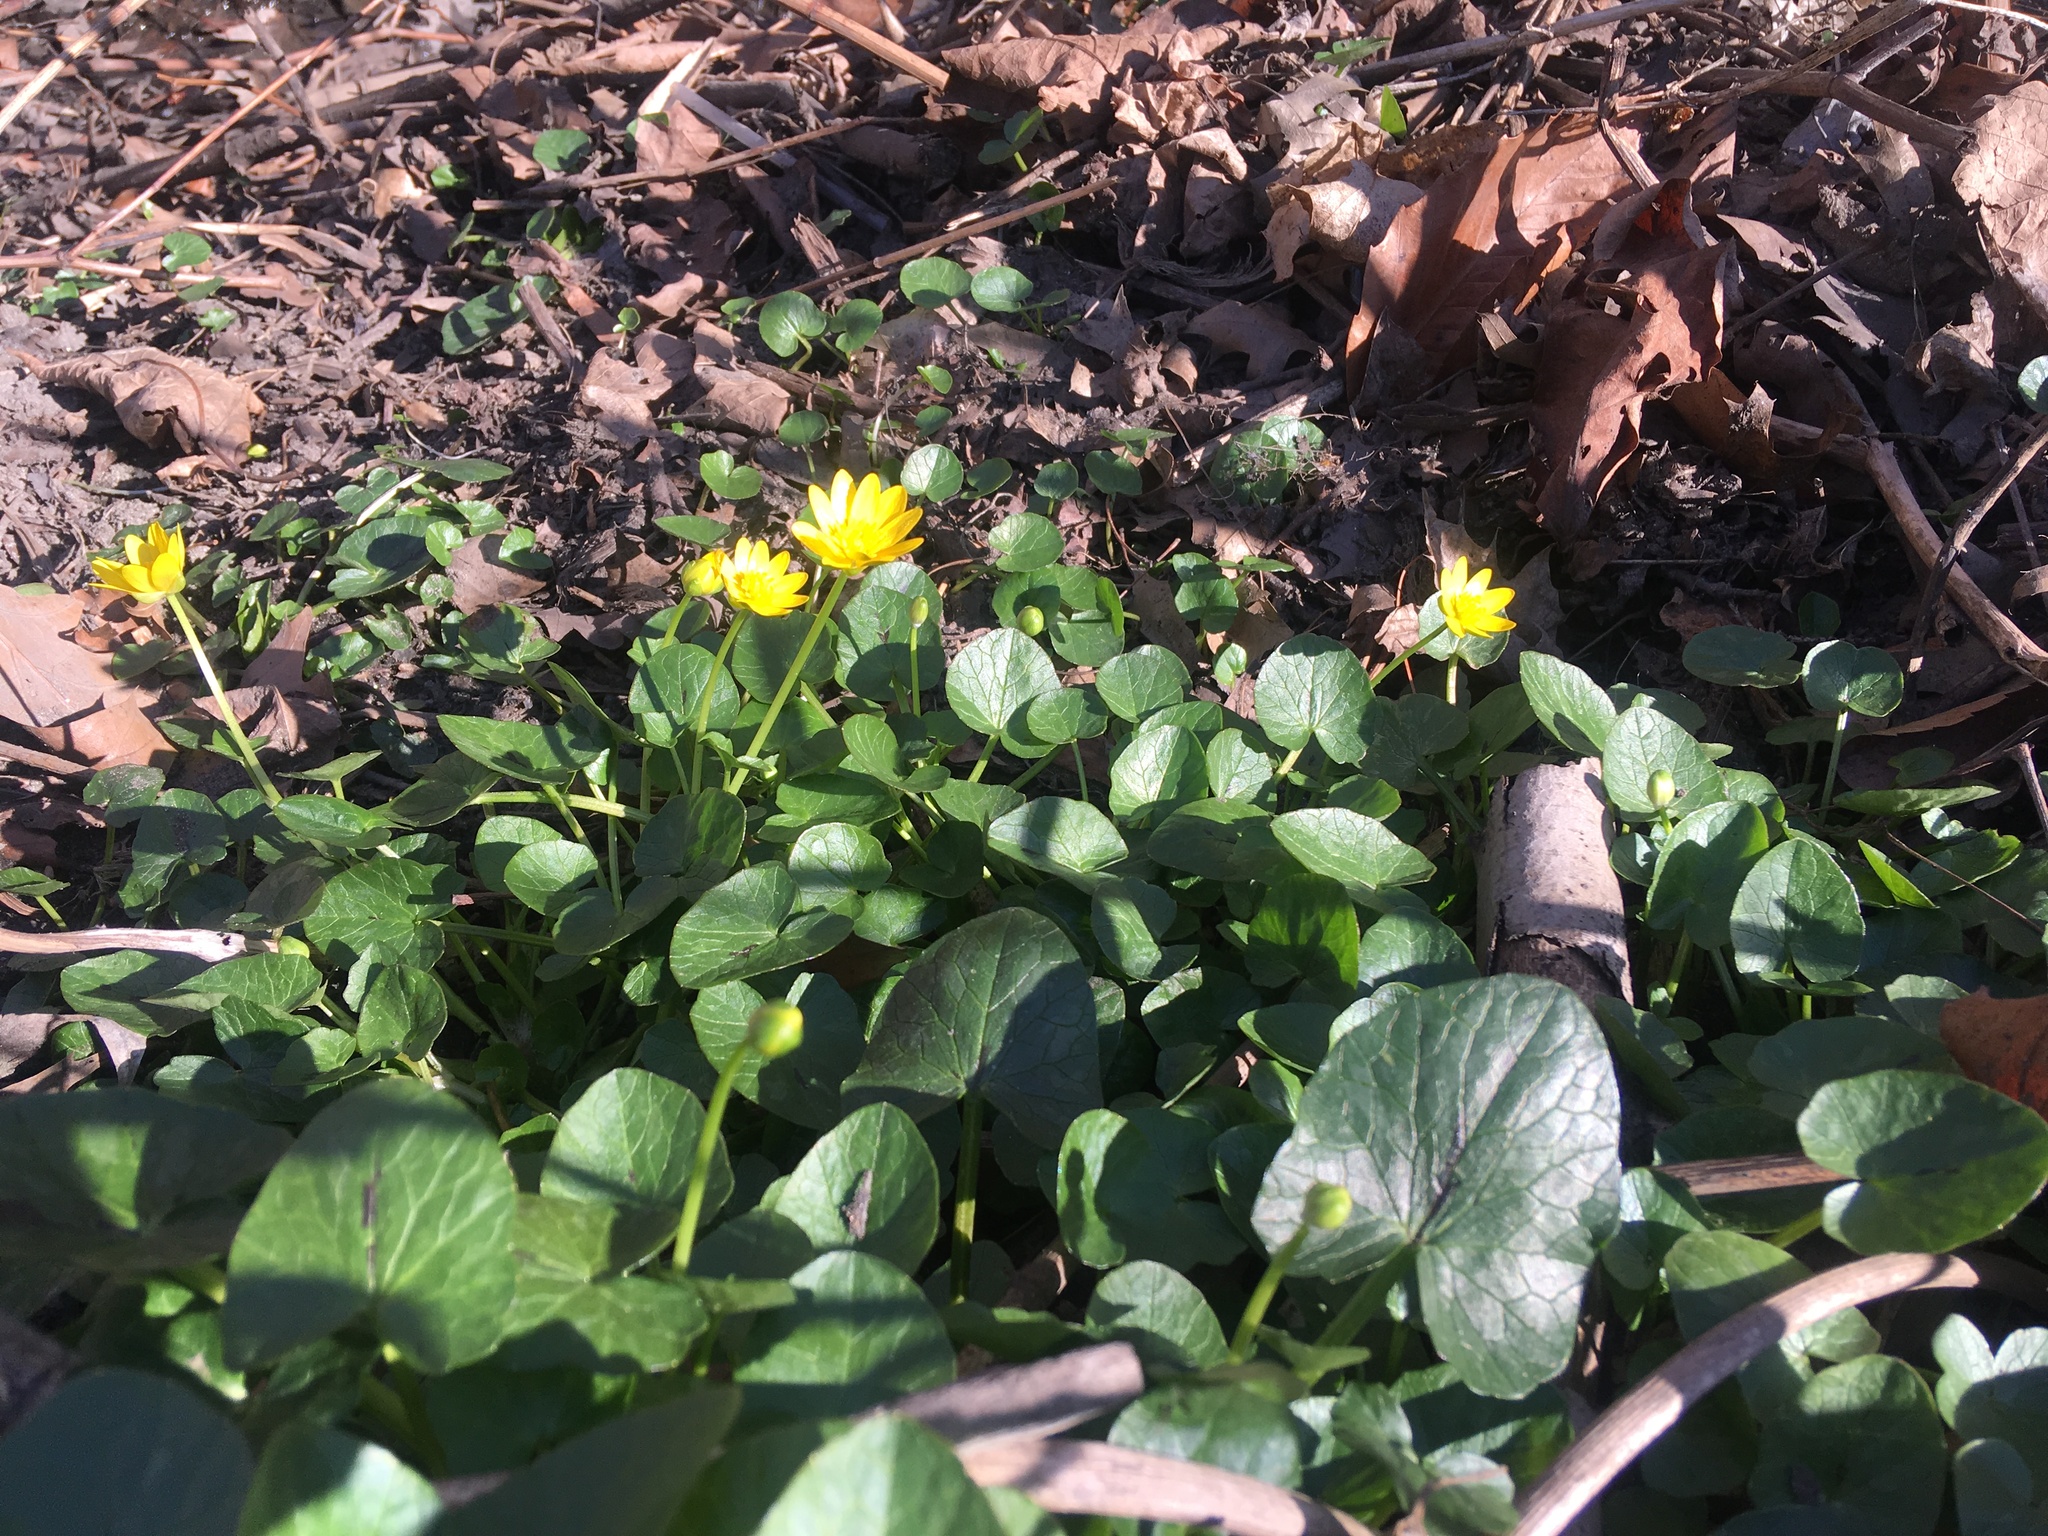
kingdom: Plantae
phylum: Tracheophyta
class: Magnoliopsida
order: Ranunculales
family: Ranunculaceae
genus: Ficaria
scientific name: Ficaria verna
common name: Lesser celandine
